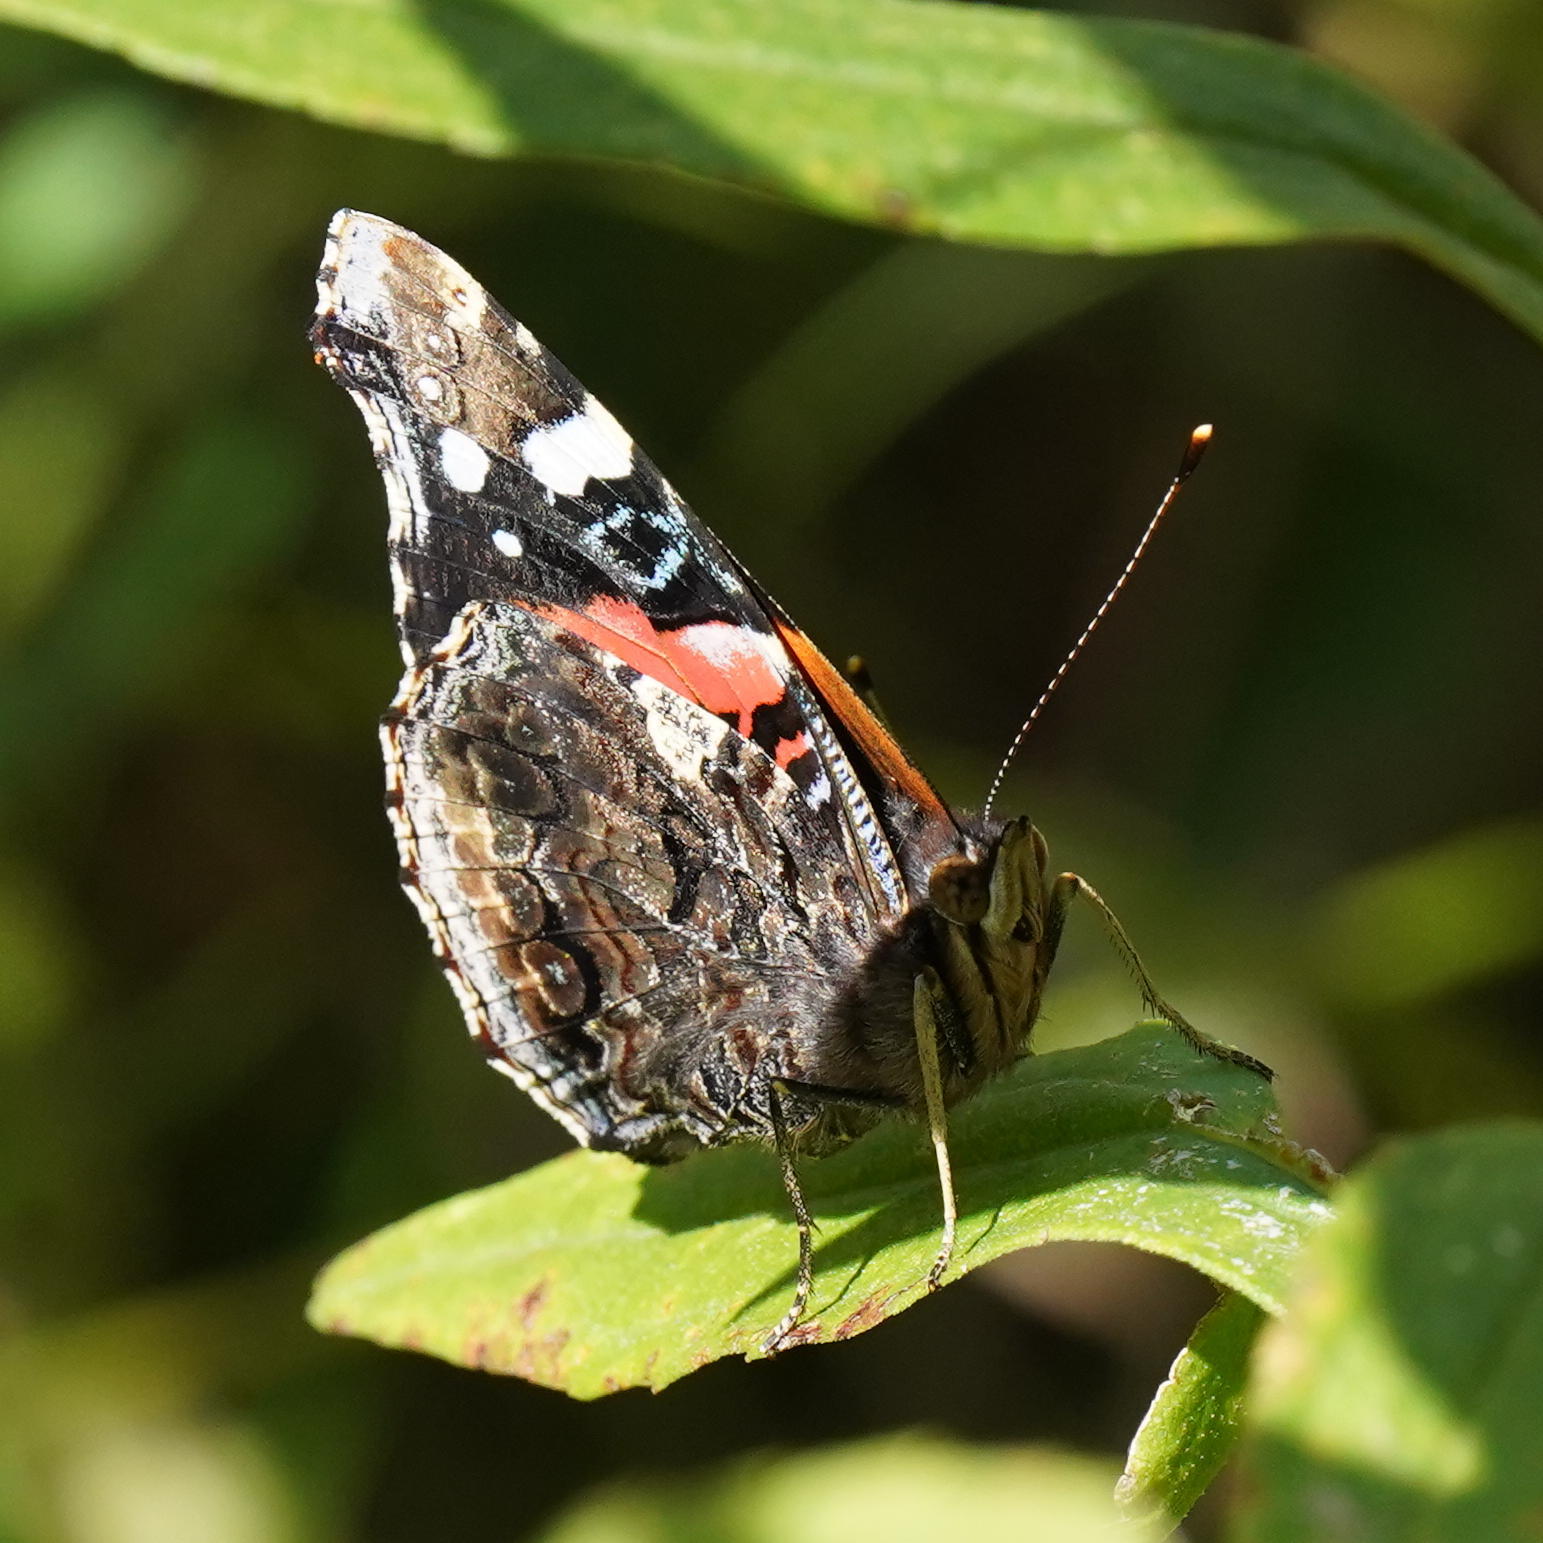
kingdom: Animalia
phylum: Arthropoda
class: Insecta
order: Lepidoptera
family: Nymphalidae
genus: Vanessa
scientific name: Vanessa atalanta
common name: Red admiral
